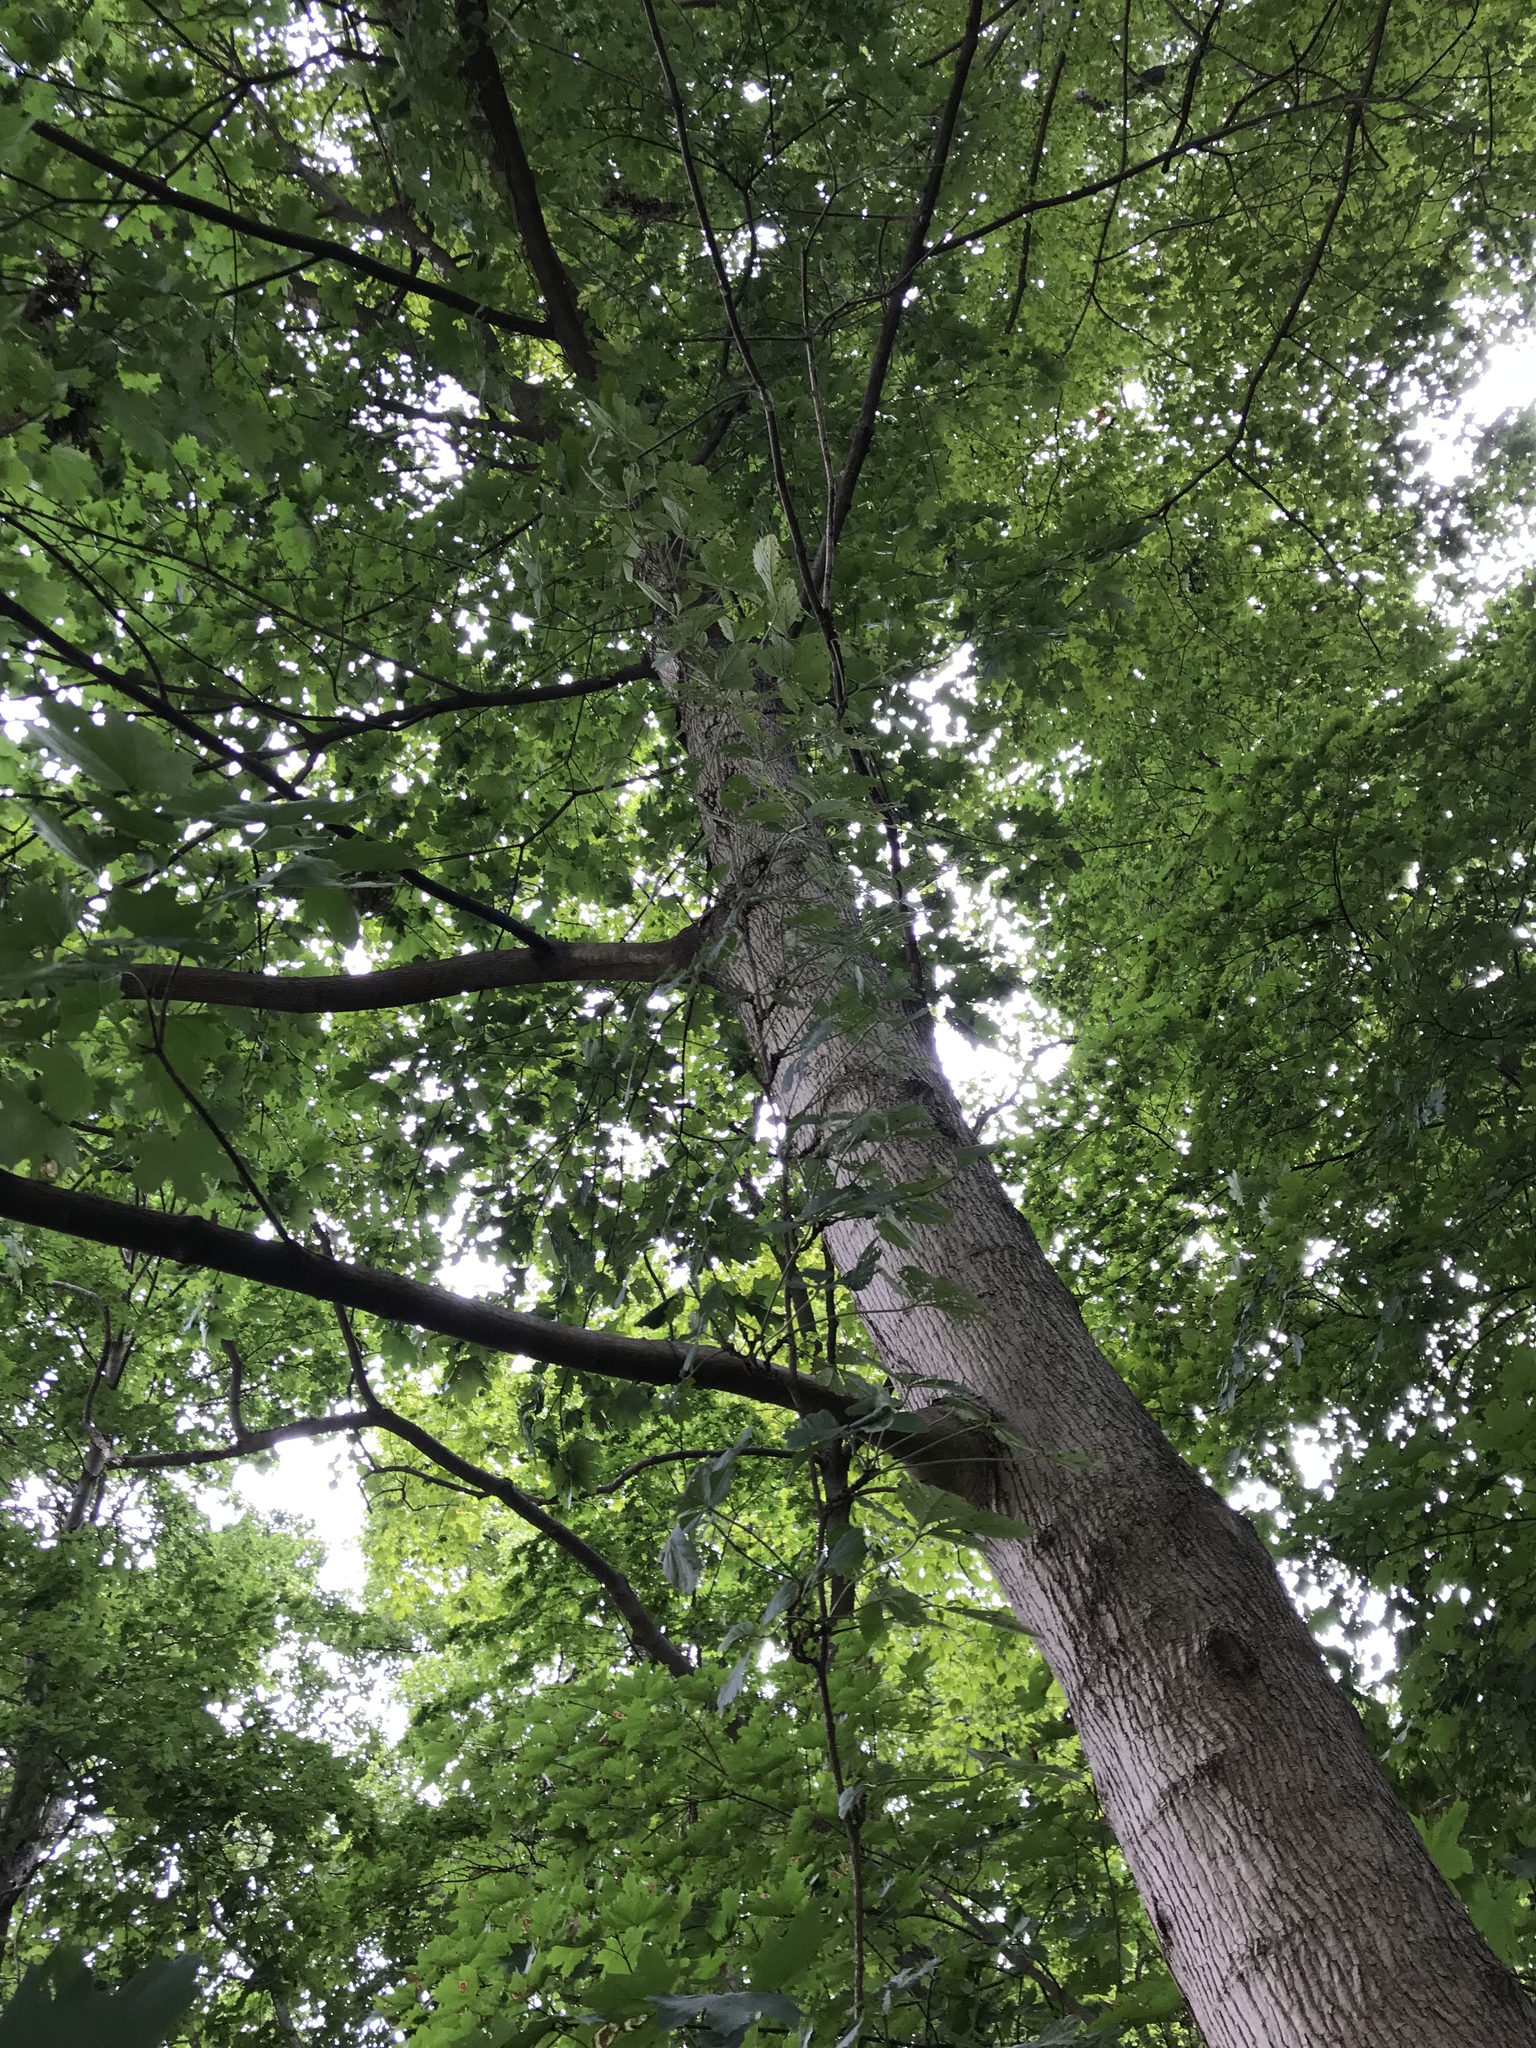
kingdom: Plantae
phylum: Tracheophyta
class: Magnoliopsida
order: Vitales
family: Vitaceae
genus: Parthenocissus
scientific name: Parthenocissus quinquefolia
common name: Virginia-creeper
